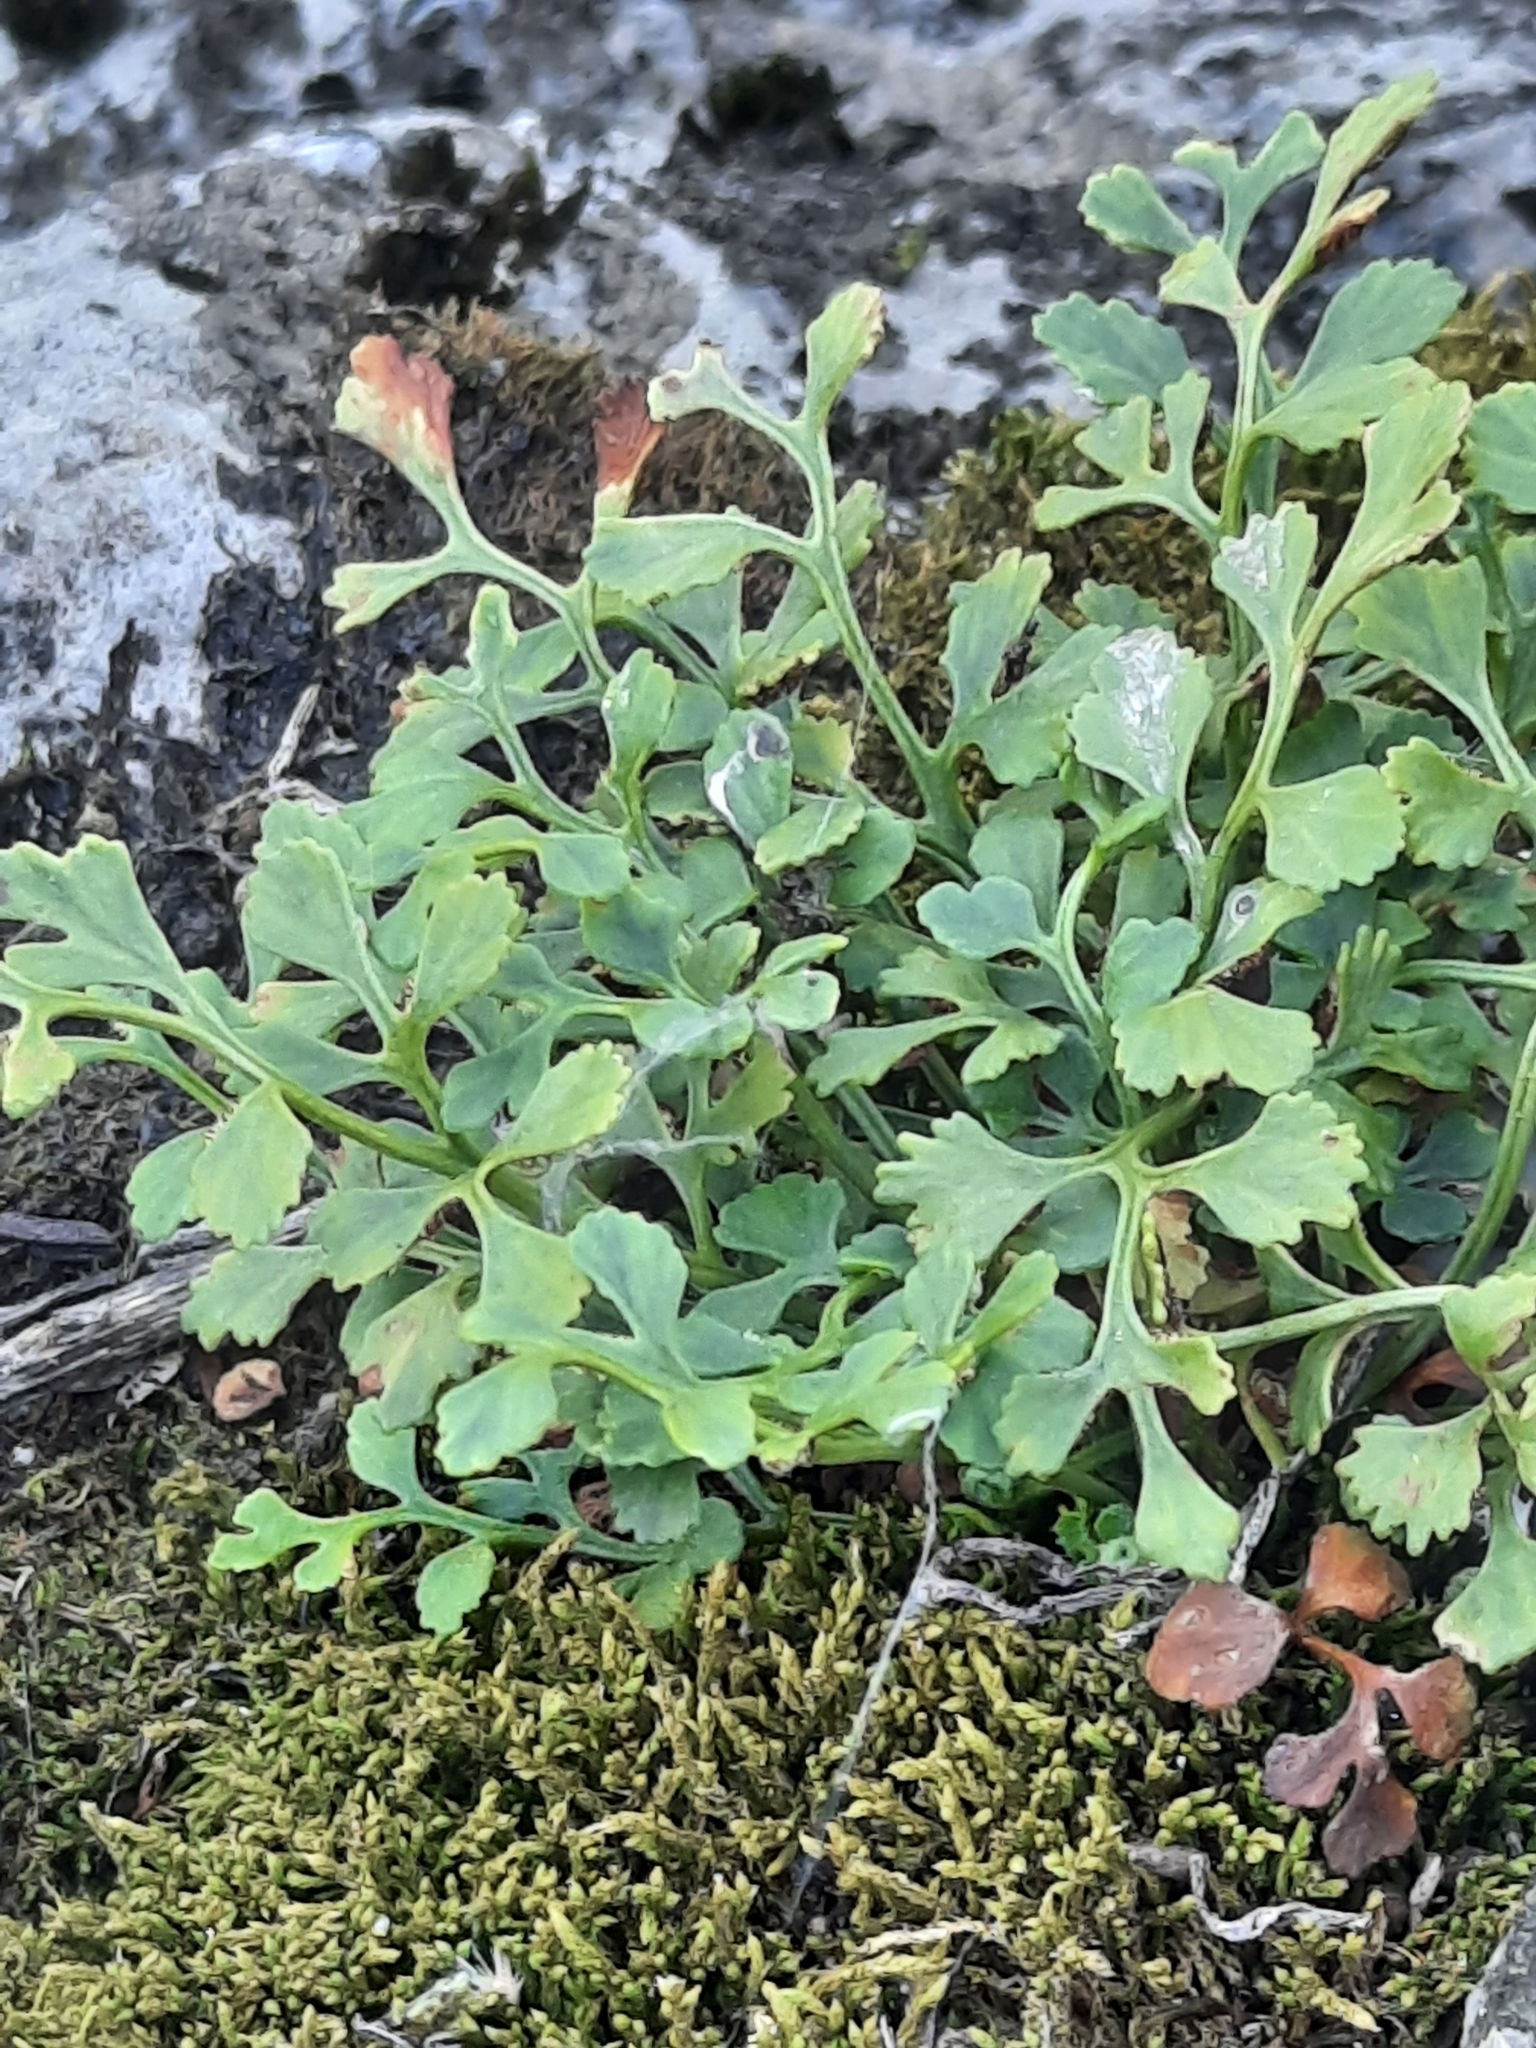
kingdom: Plantae
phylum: Tracheophyta
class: Polypodiopsida
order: Polypodiales
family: Aspleniaceae
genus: Asplenium
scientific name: Asplenium ruta-muraria
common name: Wall-rue
